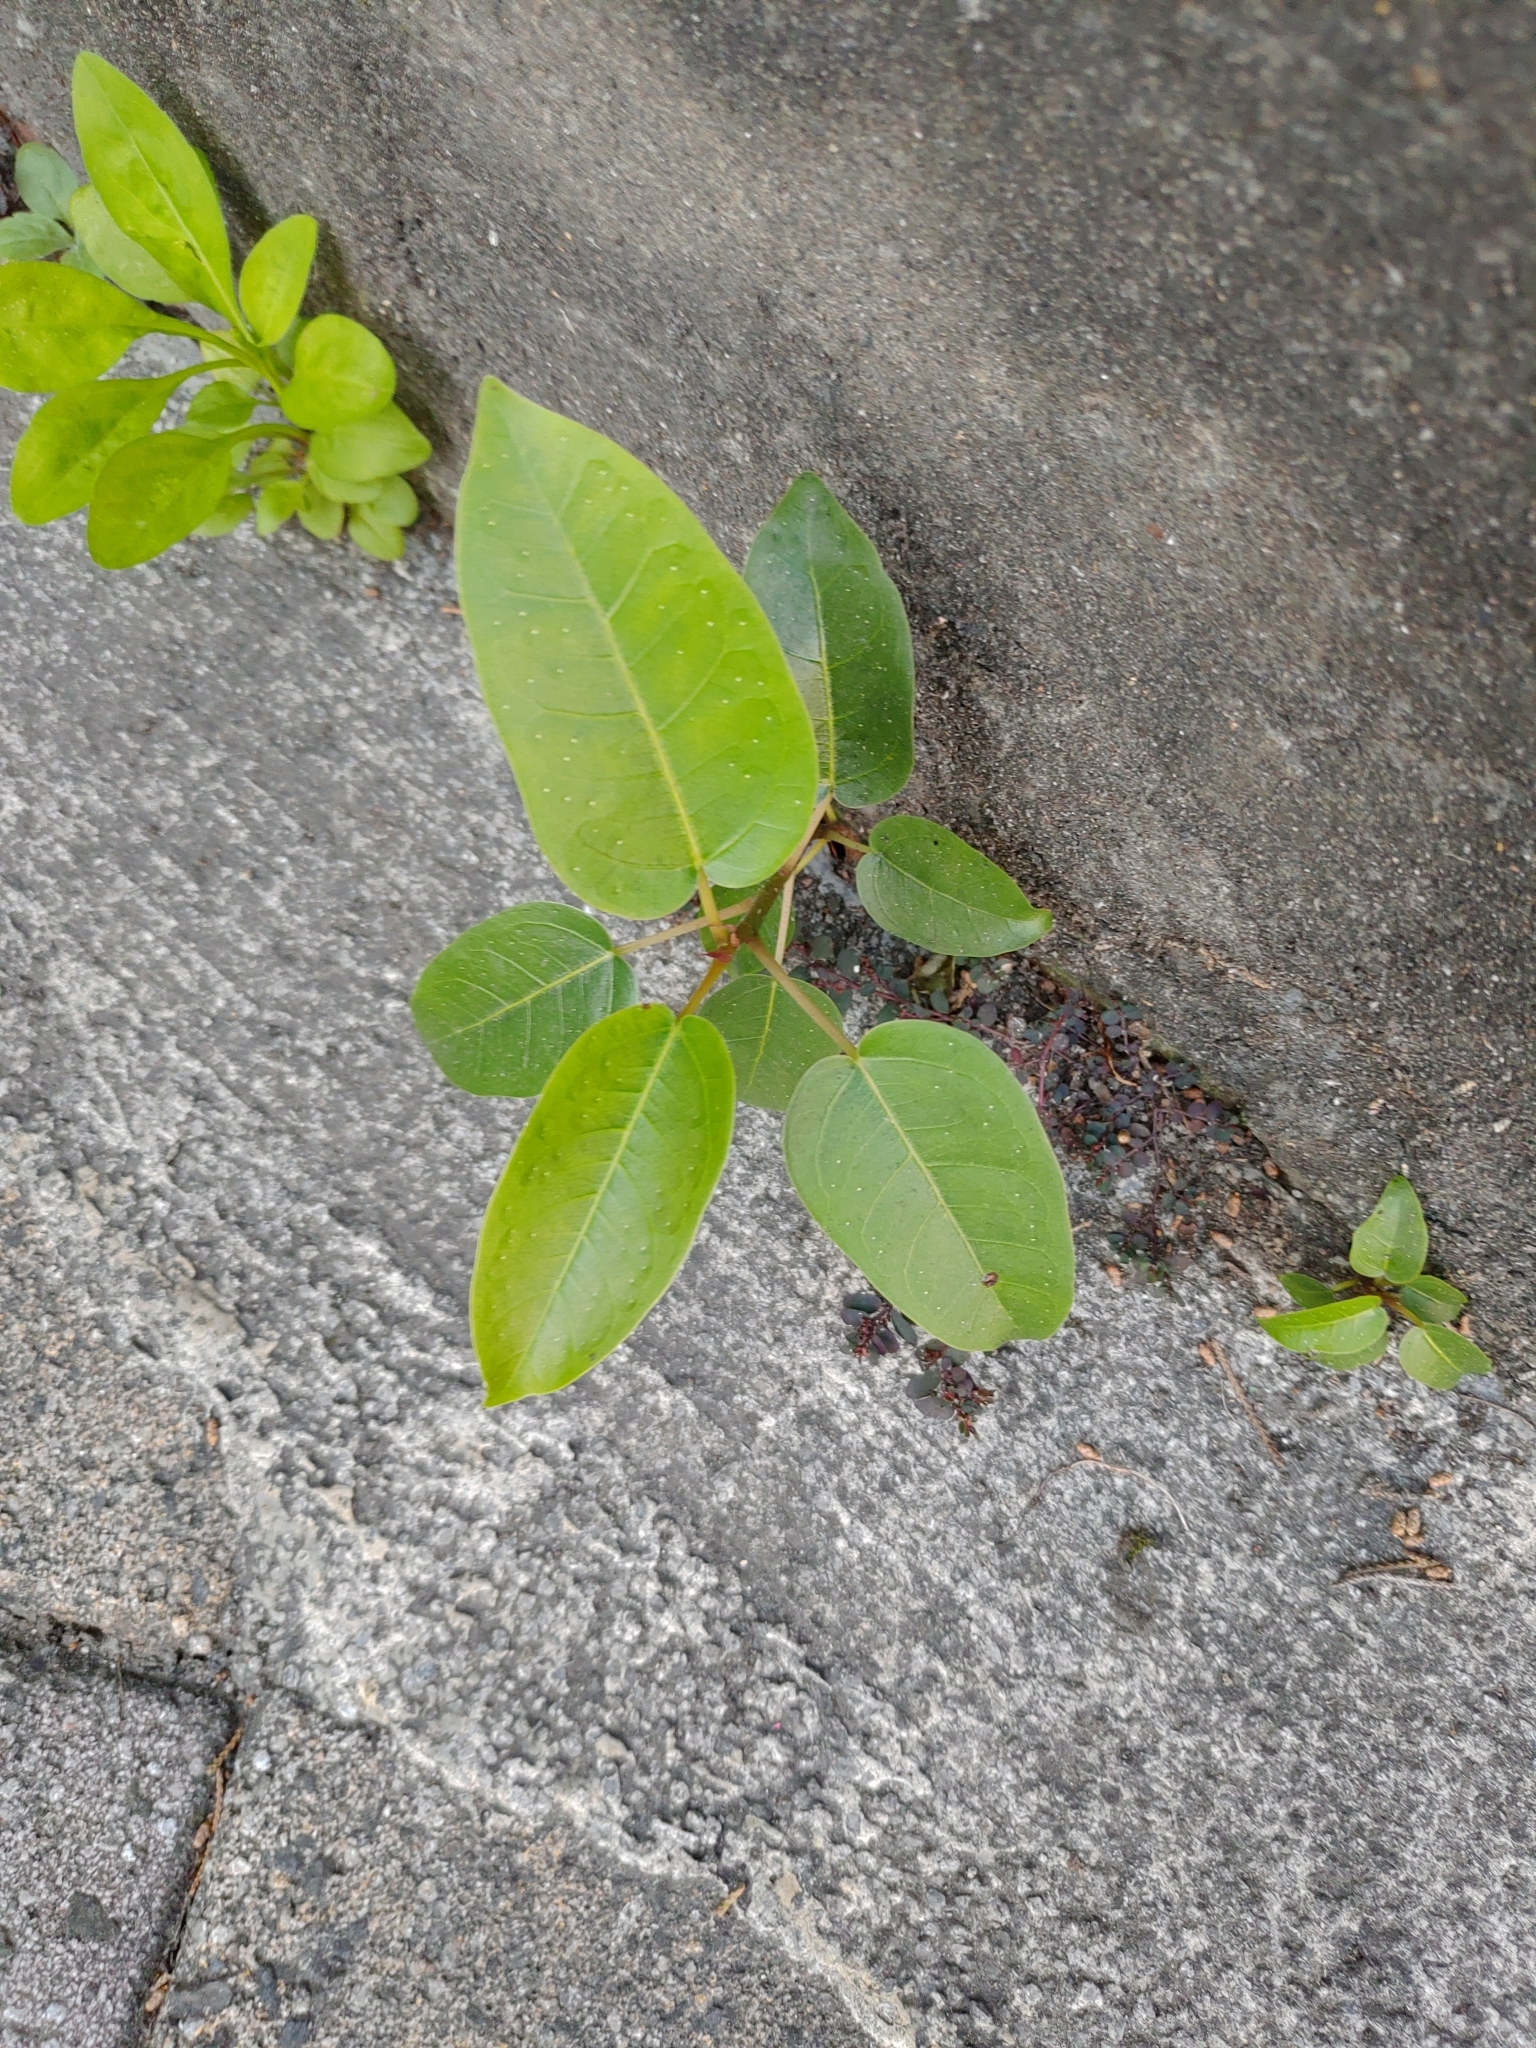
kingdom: Plantae
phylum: Tracheophyta
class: Magnoliopsida
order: Rosales
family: Moraceae
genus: Ficus
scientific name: Ficus subpisocarpa
